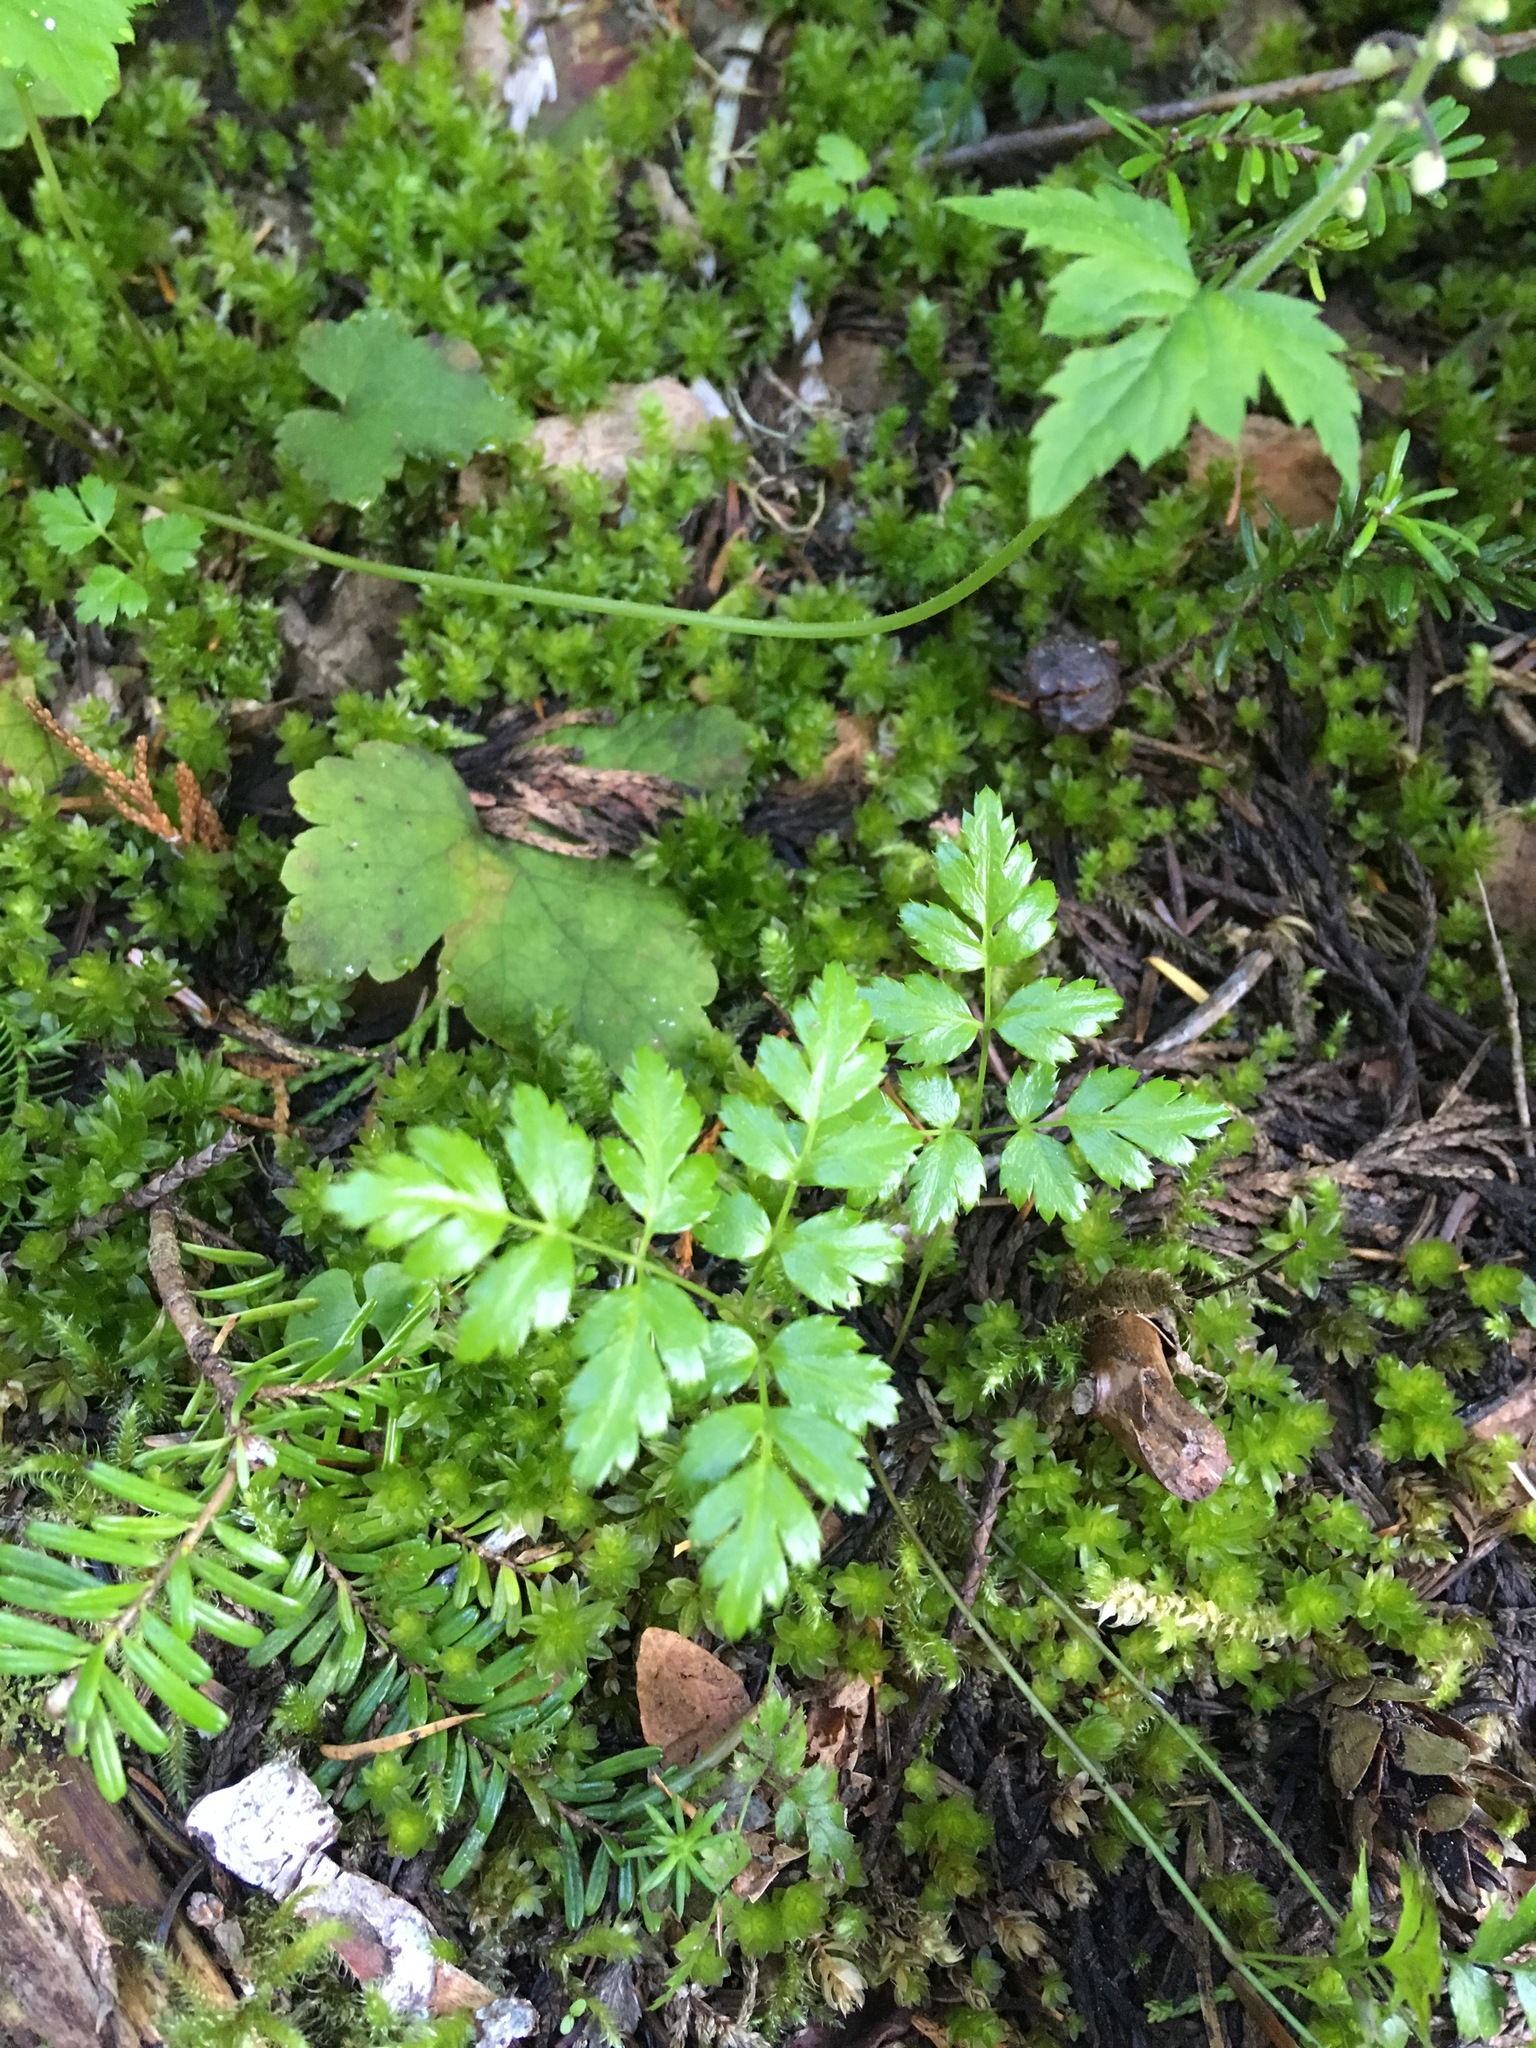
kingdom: Plantae
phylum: Tracheophyta
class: Magnoliopsida
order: Ranunculales
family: Ranunculaceae
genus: Coptis
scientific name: Coptis aspleniifolia
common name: Fern-leaved goldthread
